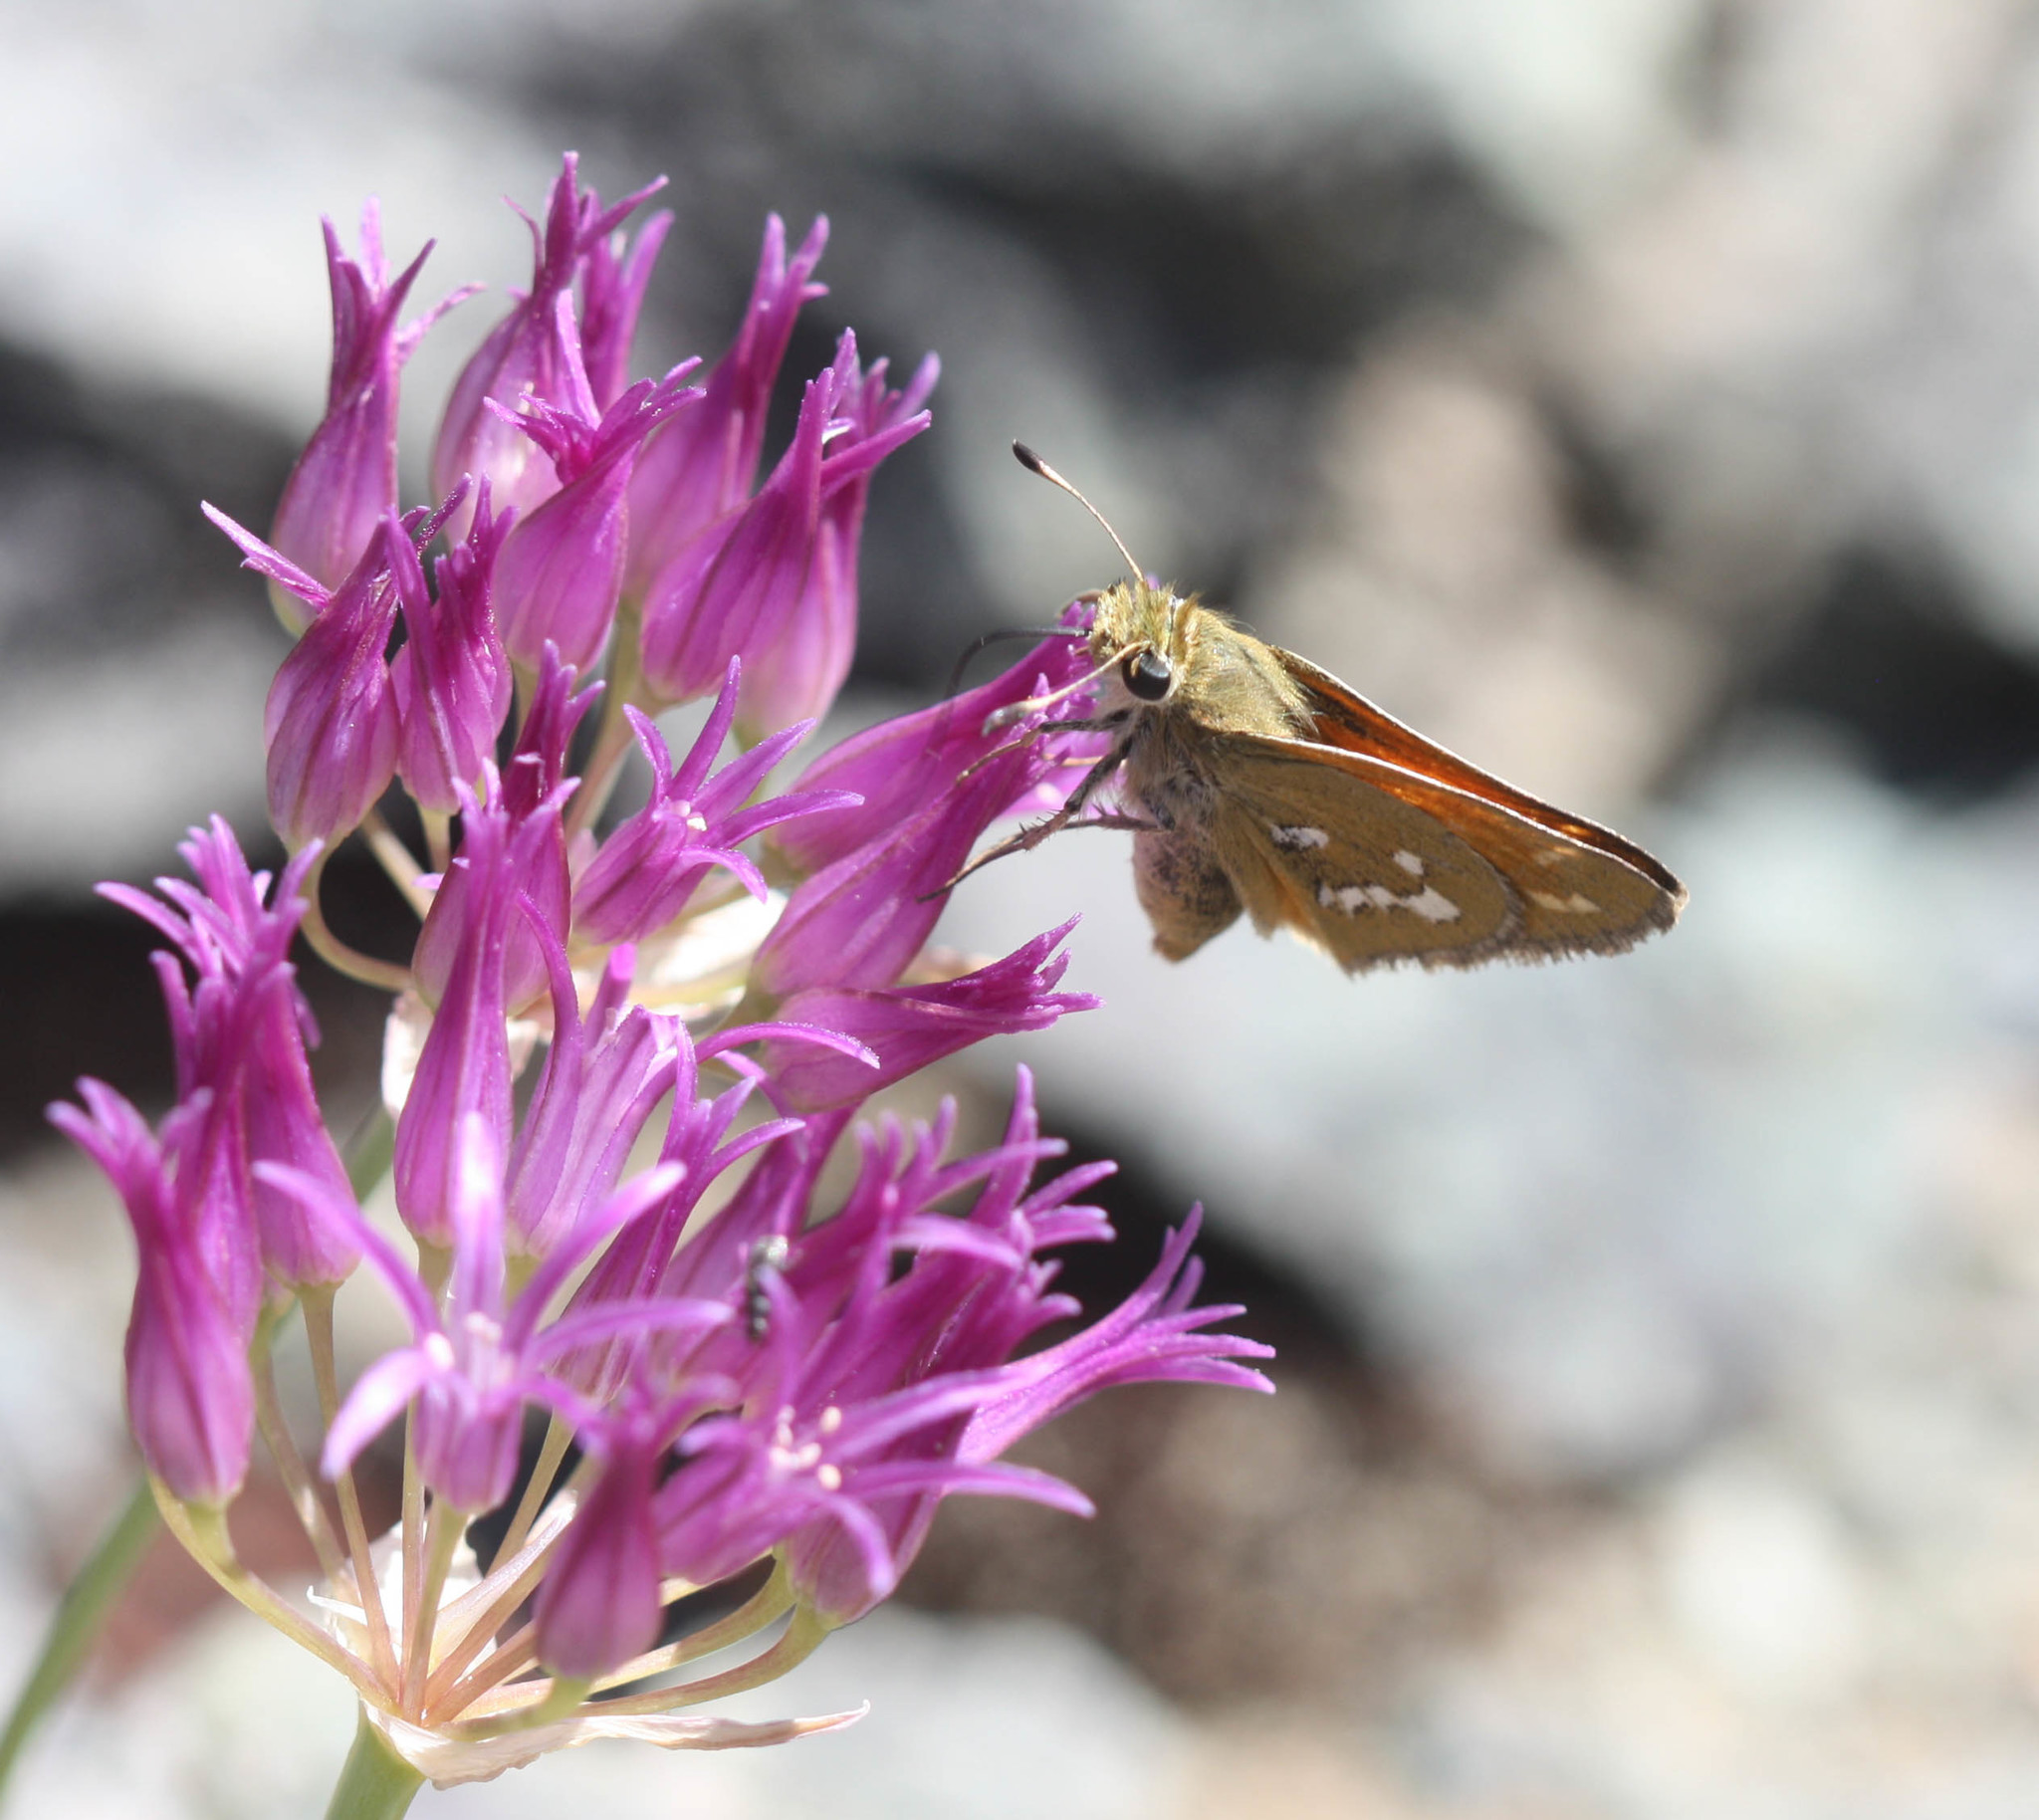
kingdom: Animalia
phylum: Arthropoda
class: Insecta
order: Lepidoptera
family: Hesperiidae
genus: Hesperia
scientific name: Hesperia columbia
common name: Columbian skipper
